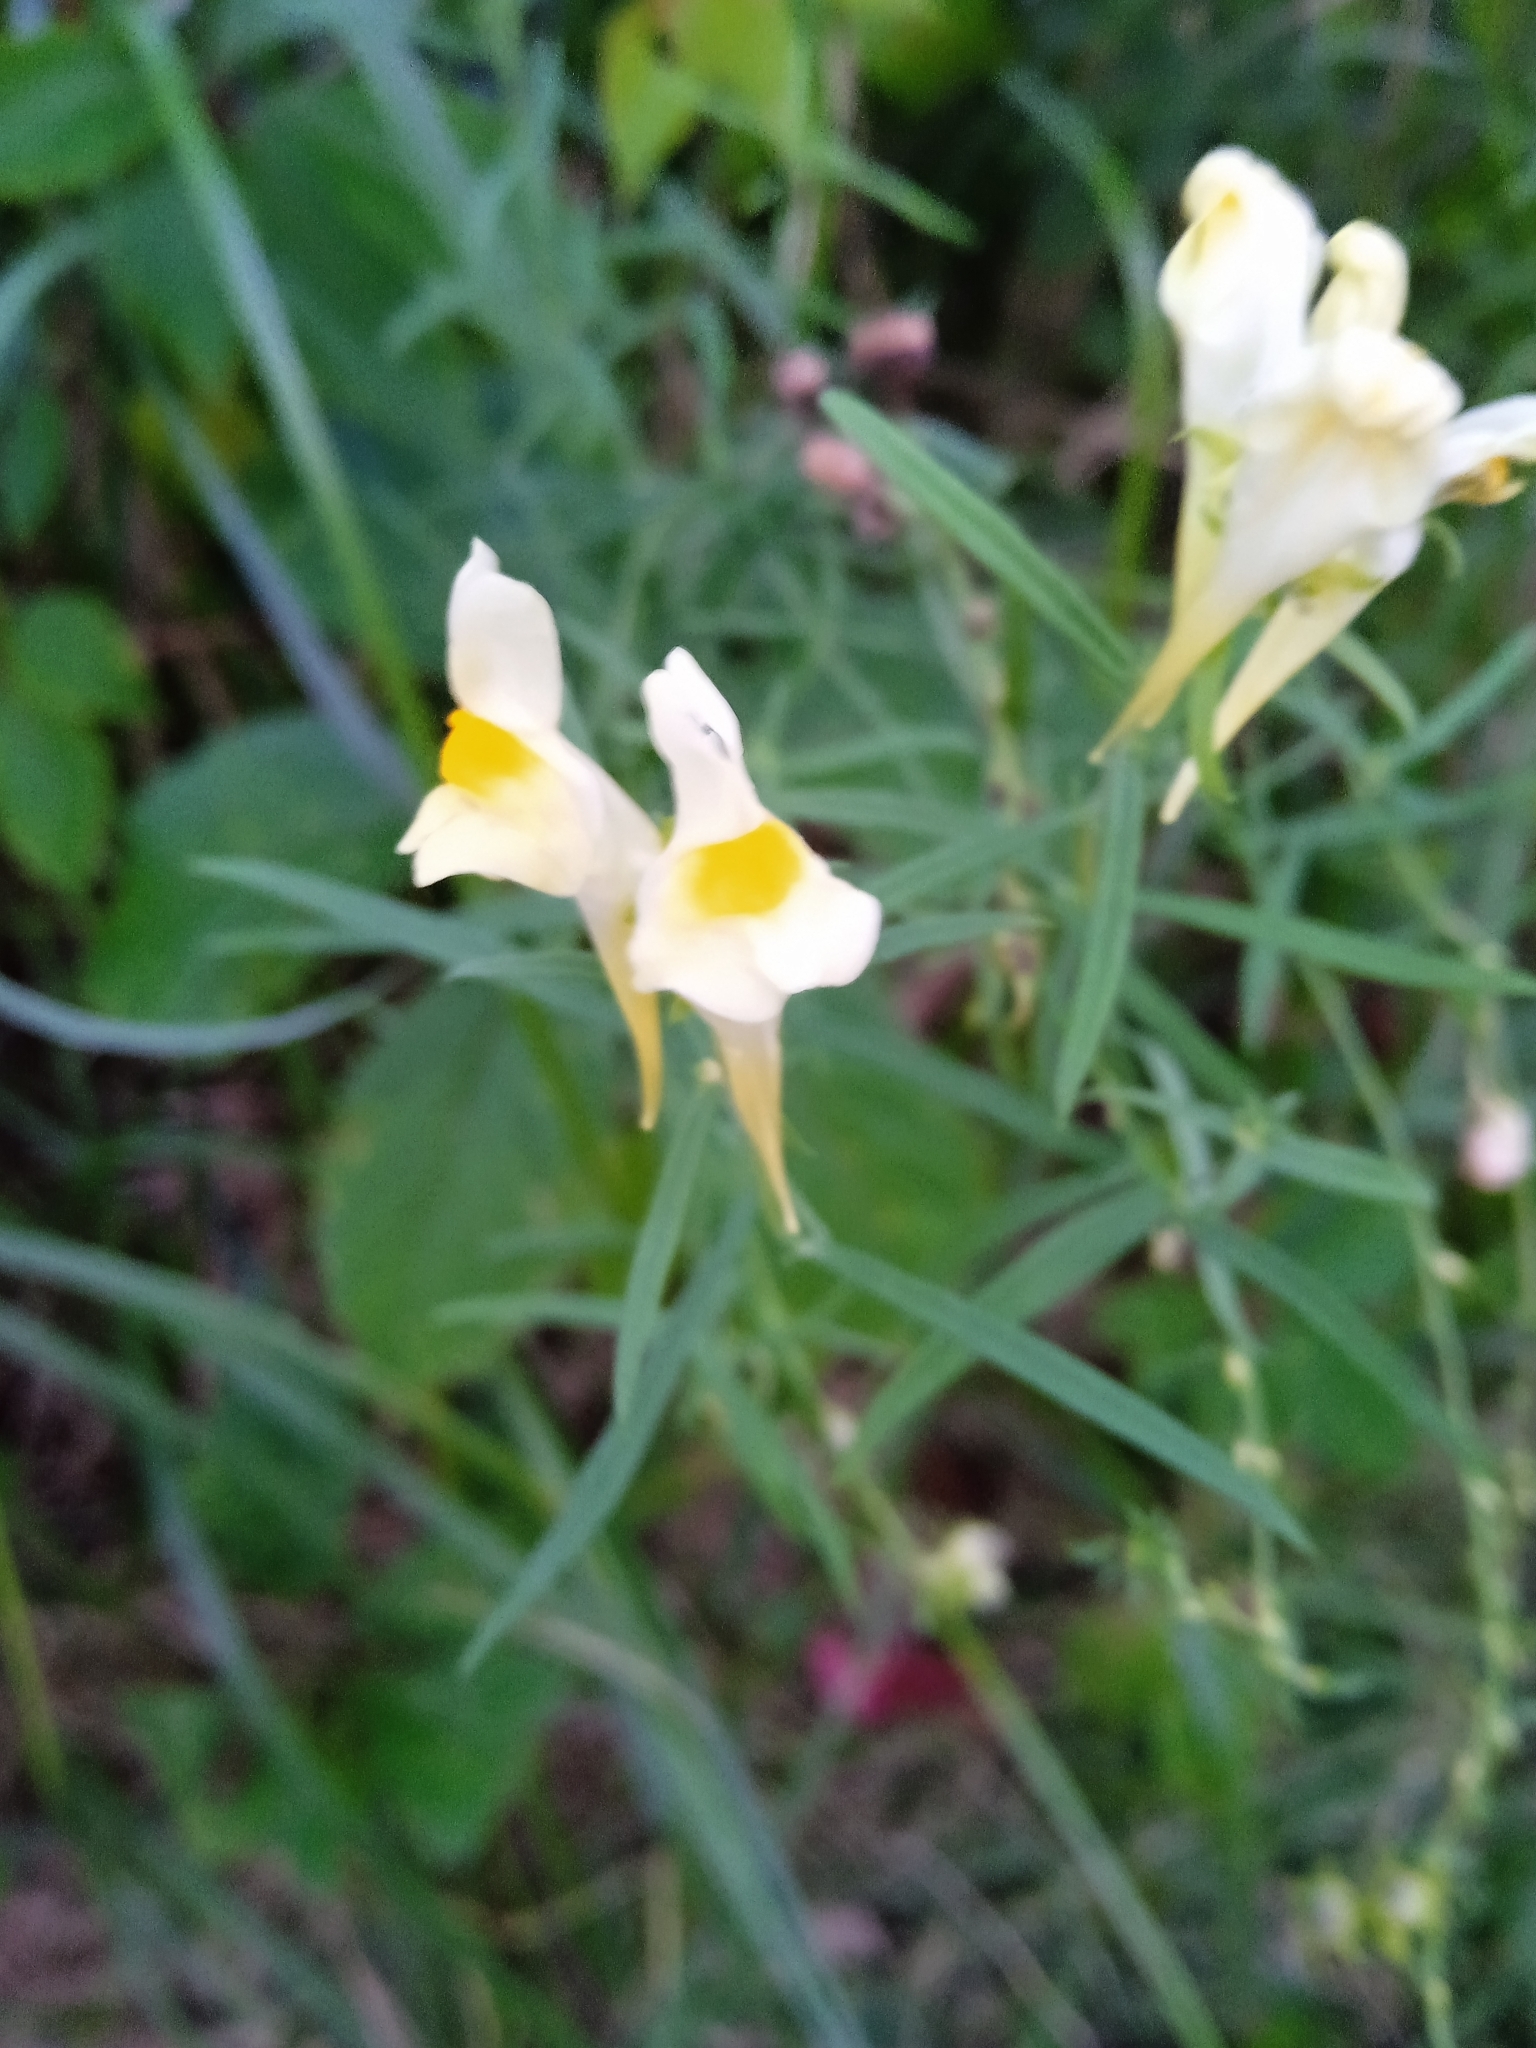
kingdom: Plantae
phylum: Tracheophyta
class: Magnoliopsida
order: Lamiales
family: Plantaginaceae
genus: Linaria
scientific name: Linaria vulgaris
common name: Butter and eggs
